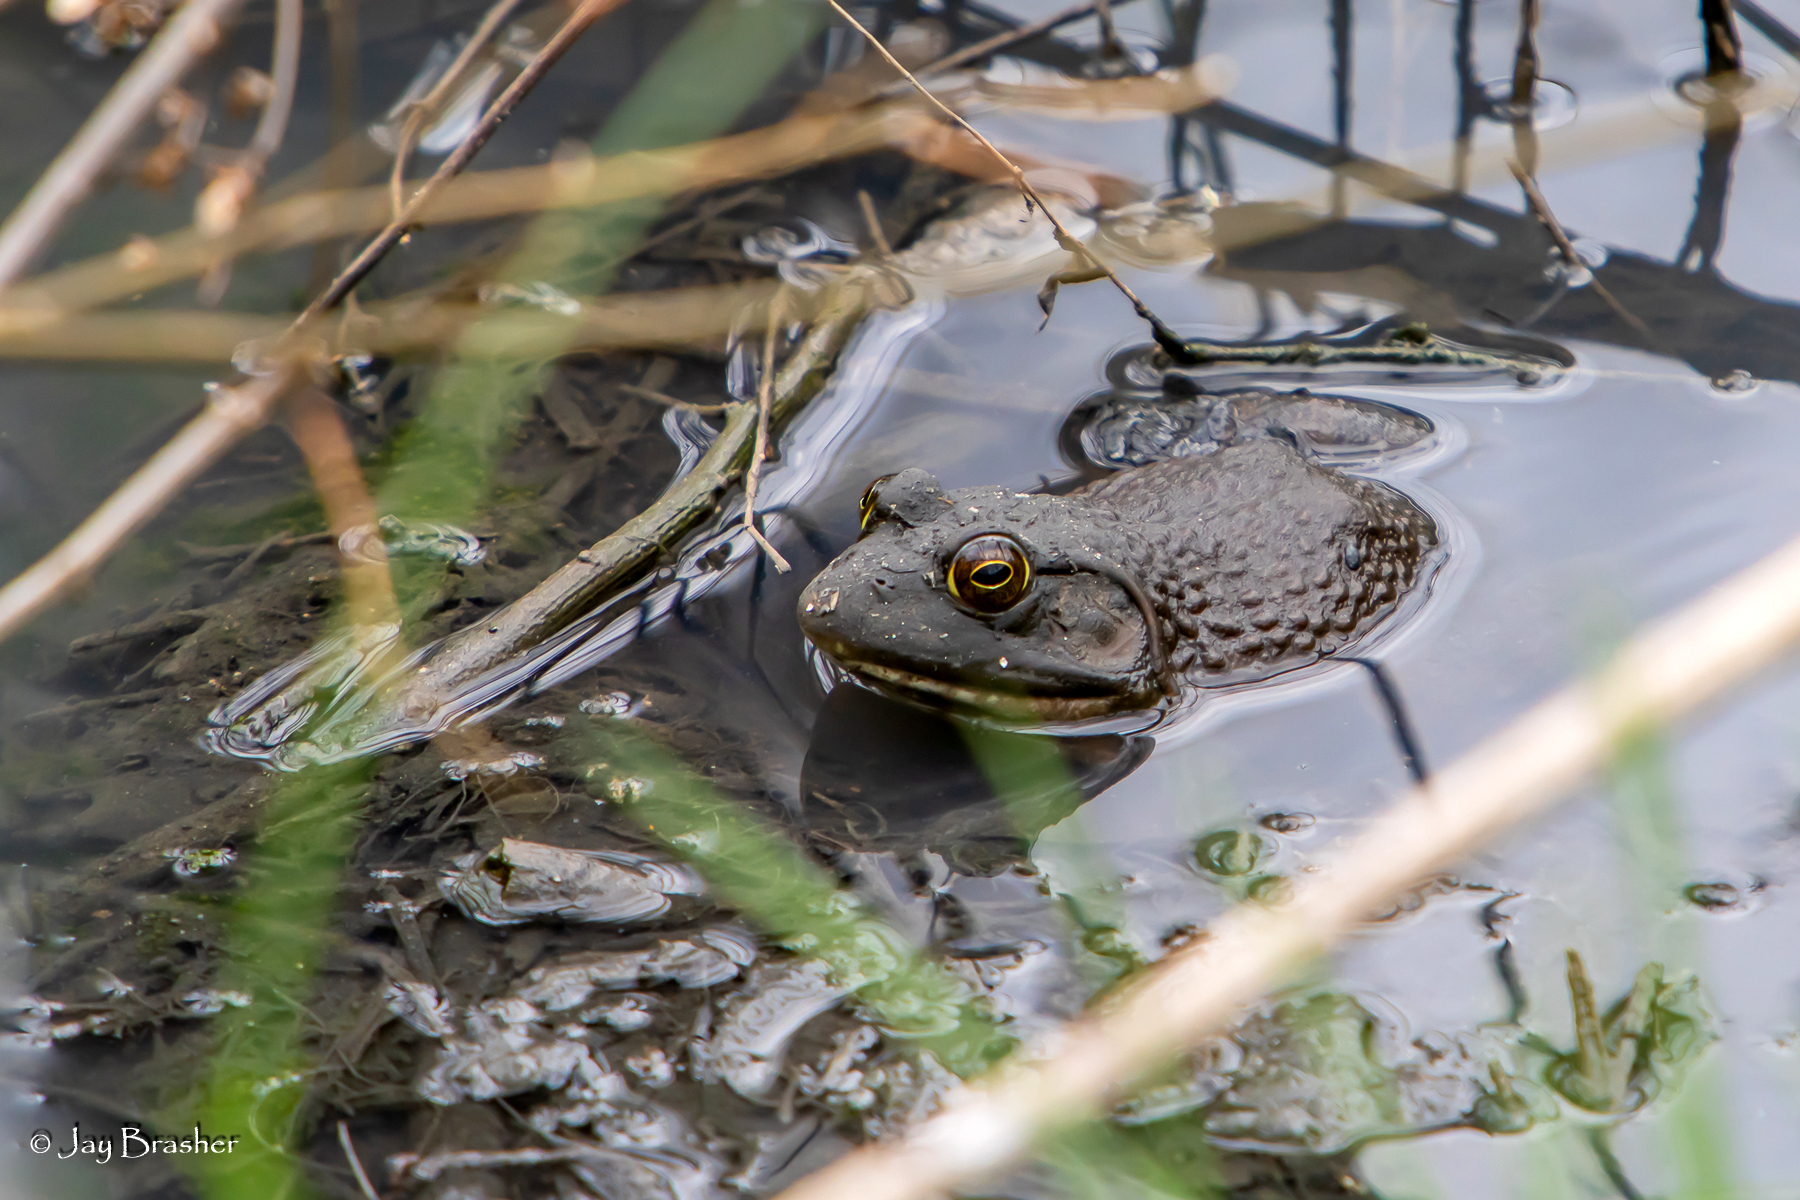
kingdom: Animalia
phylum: Chordata
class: Amphibia
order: Anura
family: Ranidae
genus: Lithobates
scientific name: Lithobates catesbeianus
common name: American bullfrog
